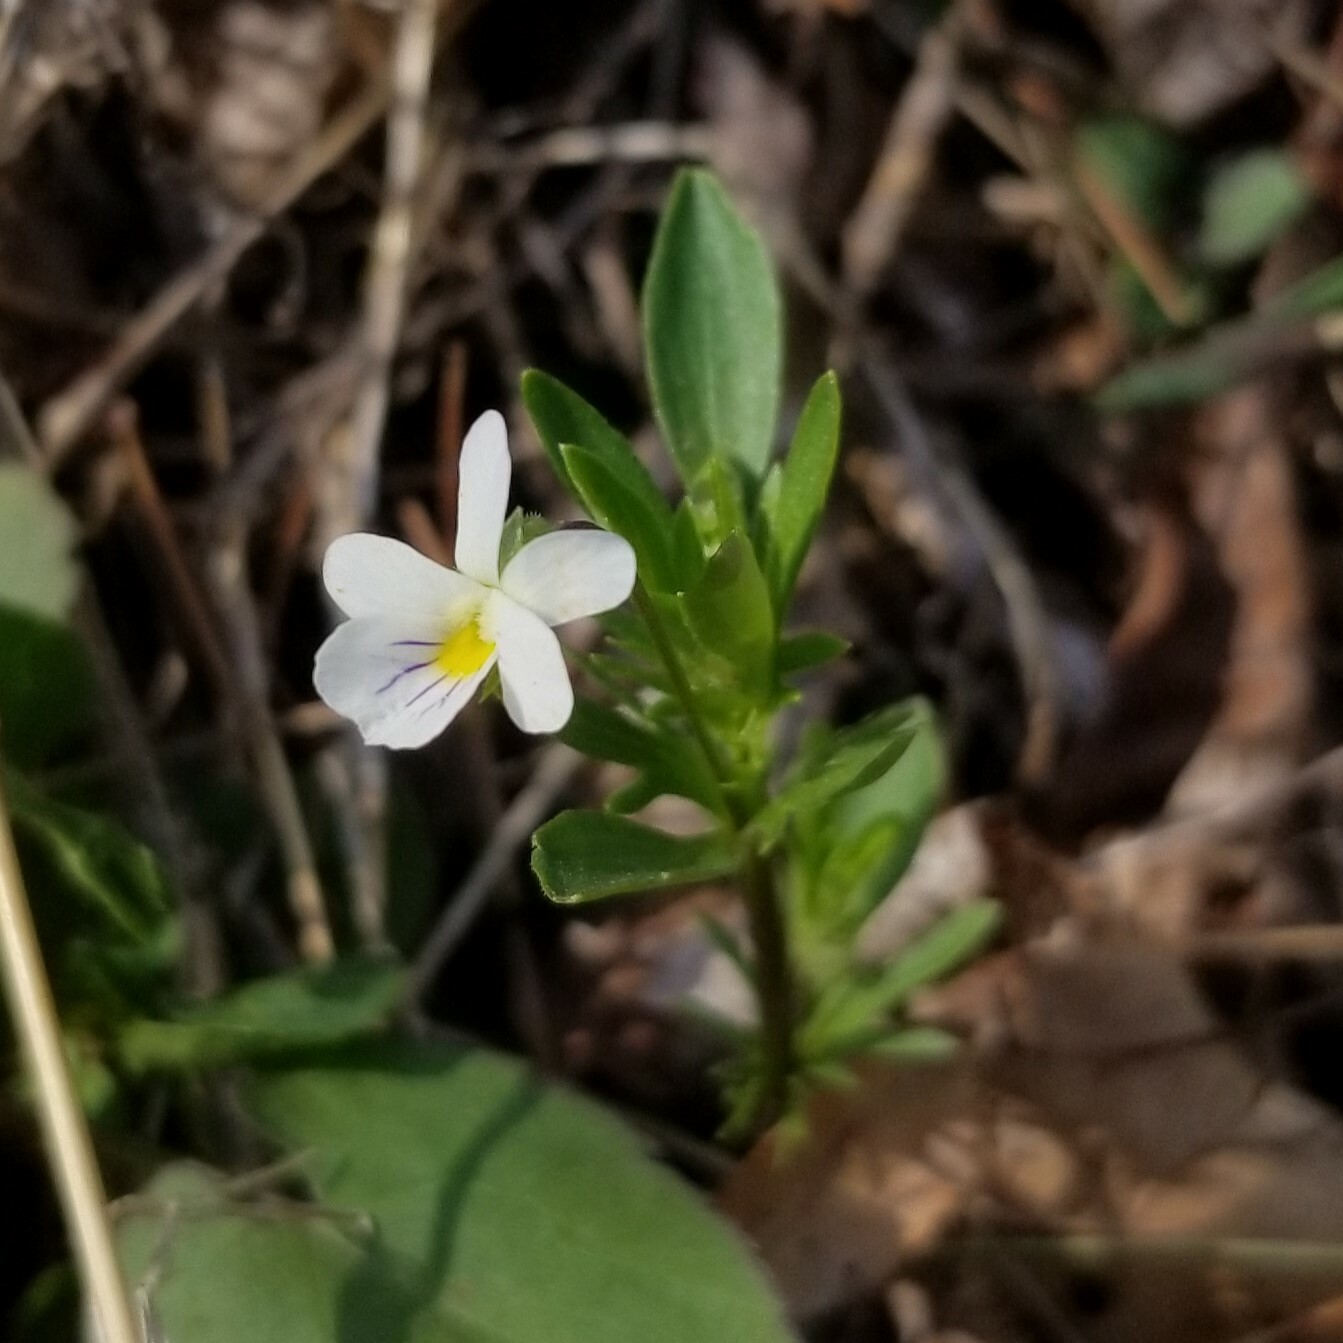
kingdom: Plantae
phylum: Tracheophyta
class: Magnoliopsida
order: Malpighiales
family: Violaceae
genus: Viola
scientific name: Viola rafinesquei
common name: American field pansy
